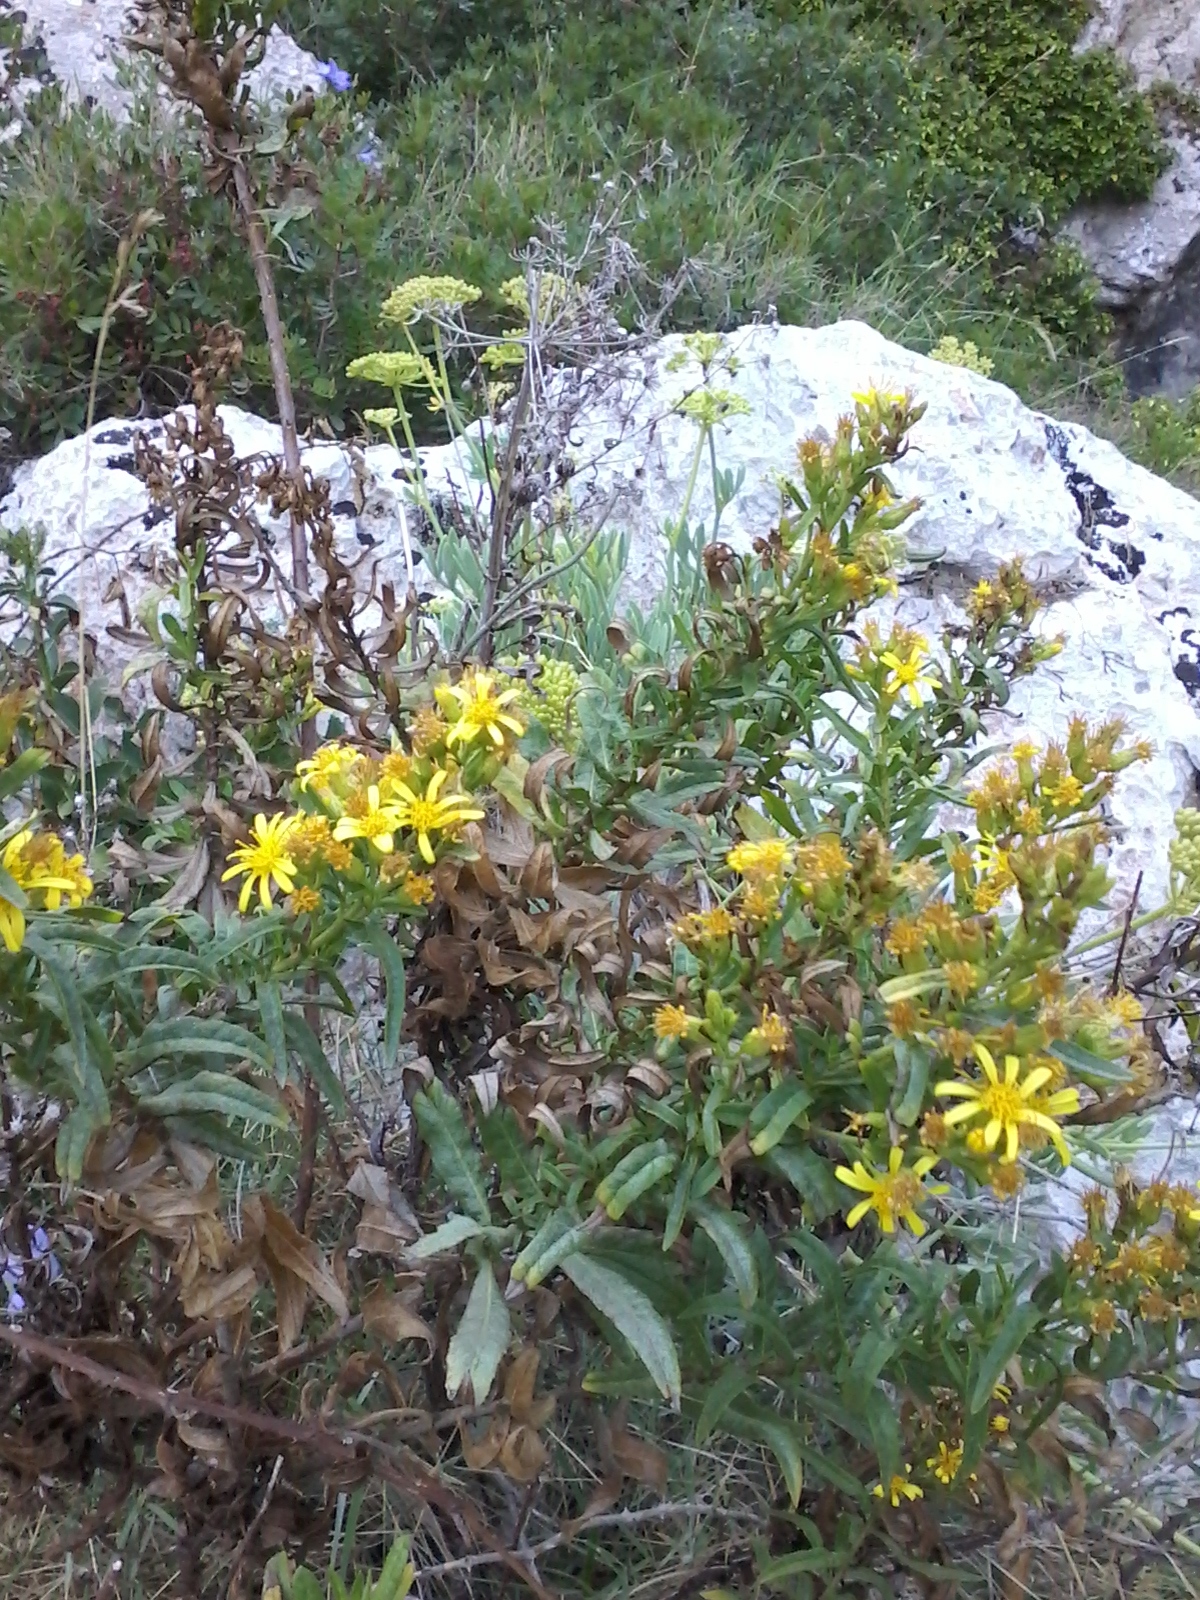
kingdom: Plantae
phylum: Tracheophyta
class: Magnoliopsida
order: Asterales
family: Asteraceae
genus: Dittrichia
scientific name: Dittrichia viscosa
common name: Woody fleabane
